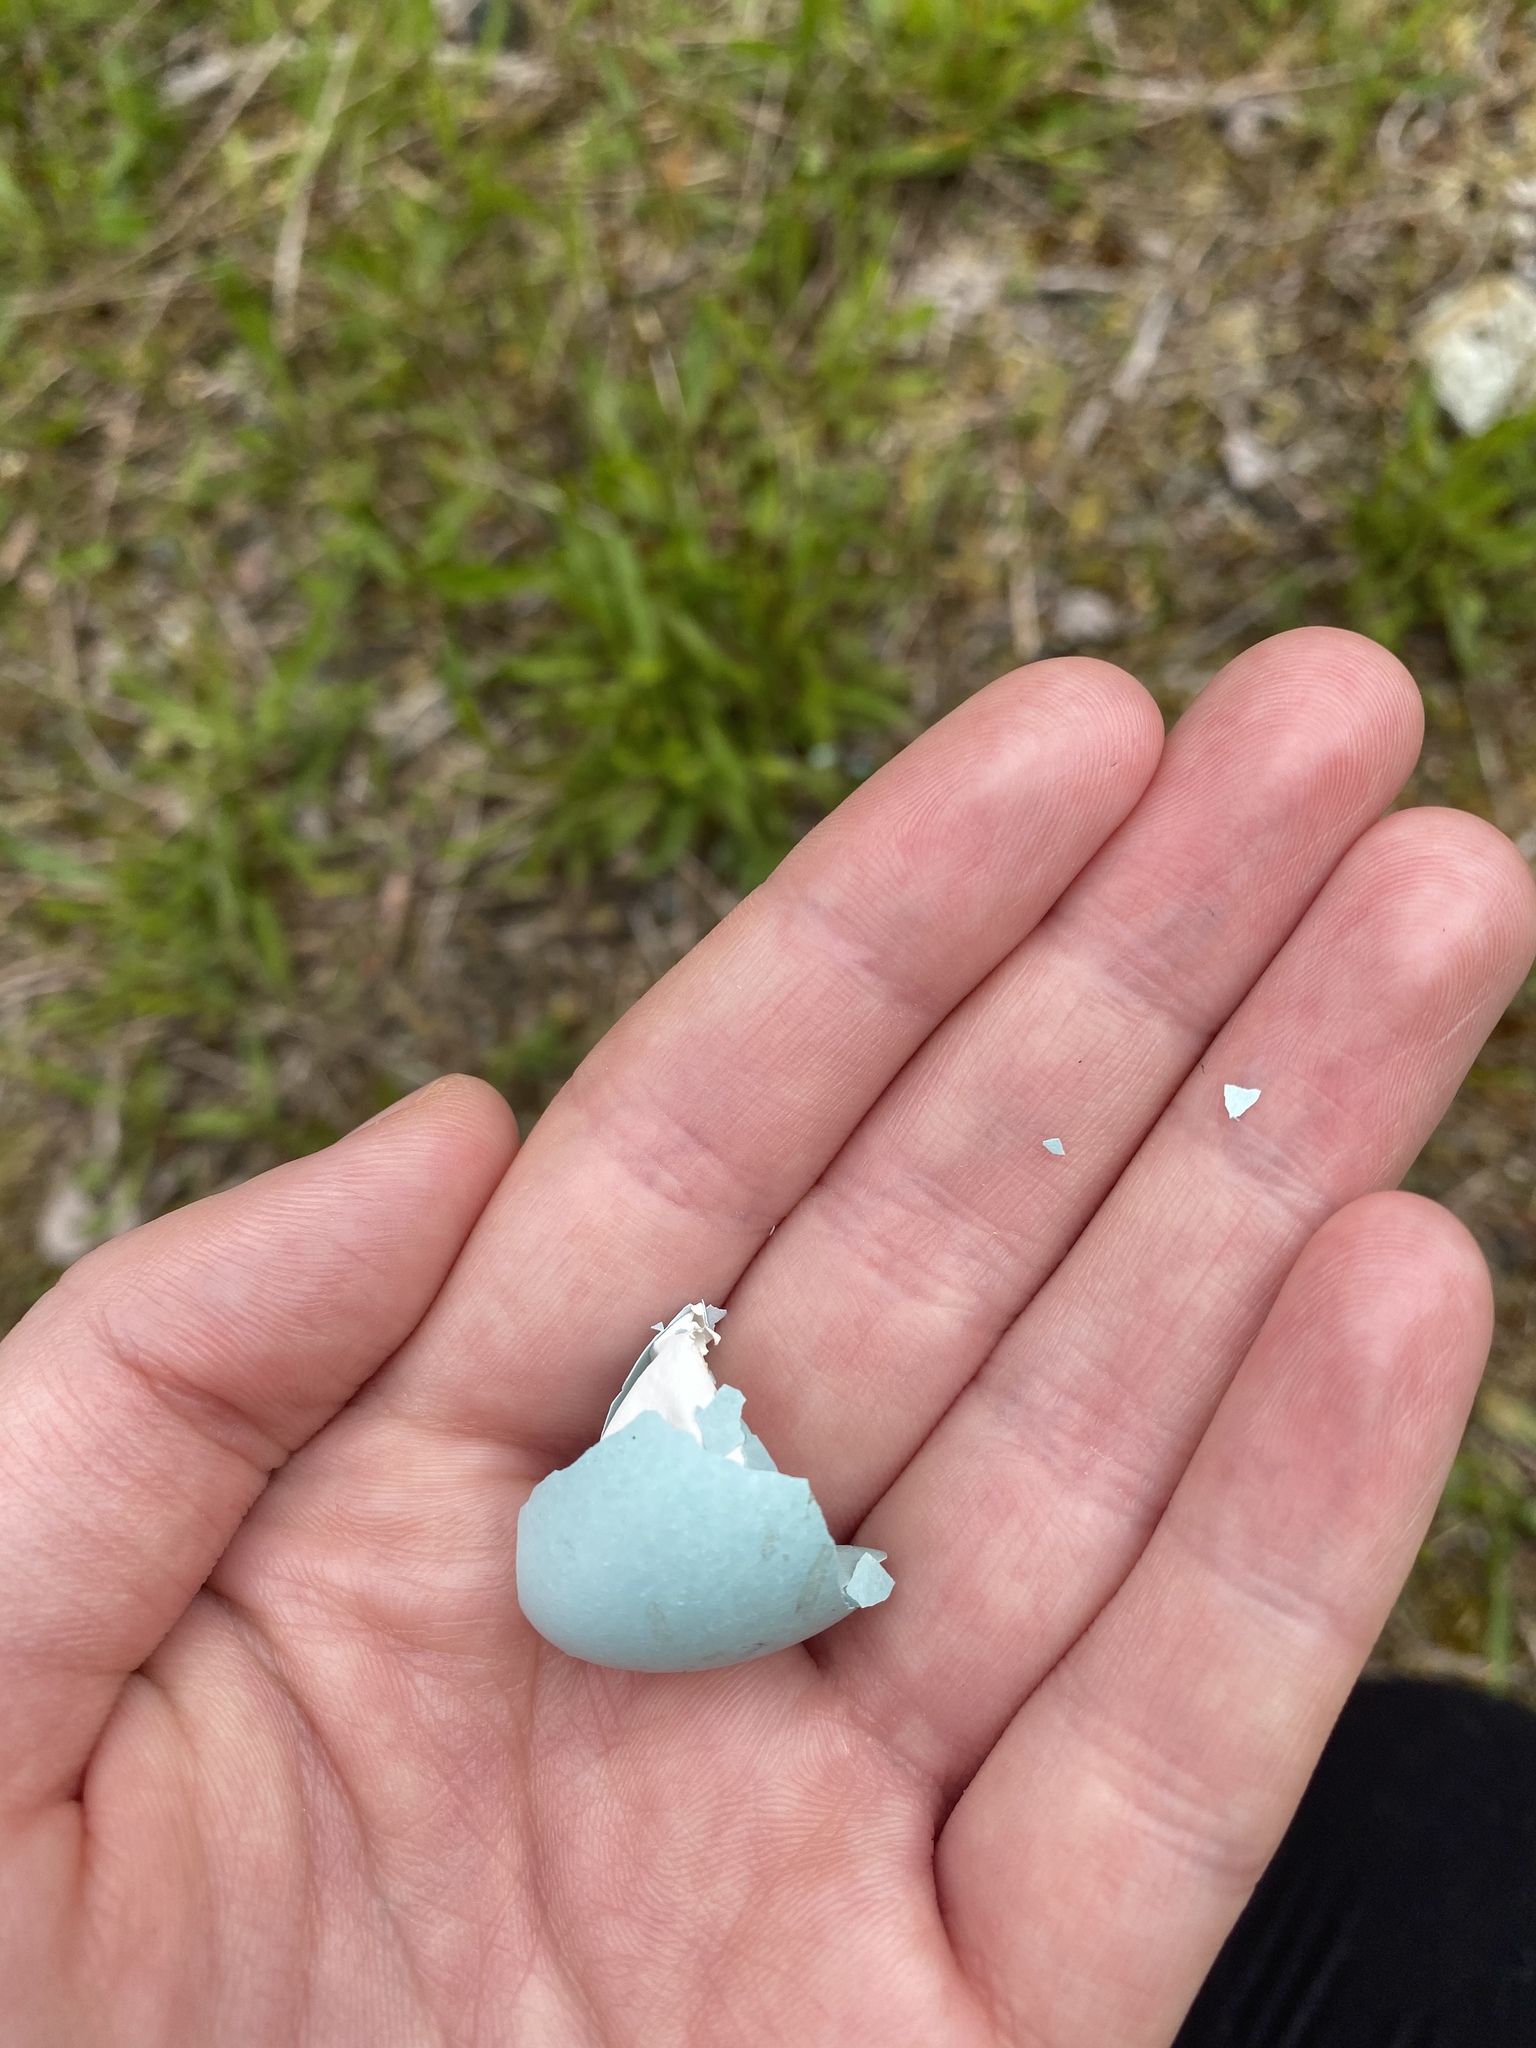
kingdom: Animalia
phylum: Chordata
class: Aves
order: Passeriformes
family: Turdidae
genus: Turdus
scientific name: Turdus migratorius
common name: American robin
